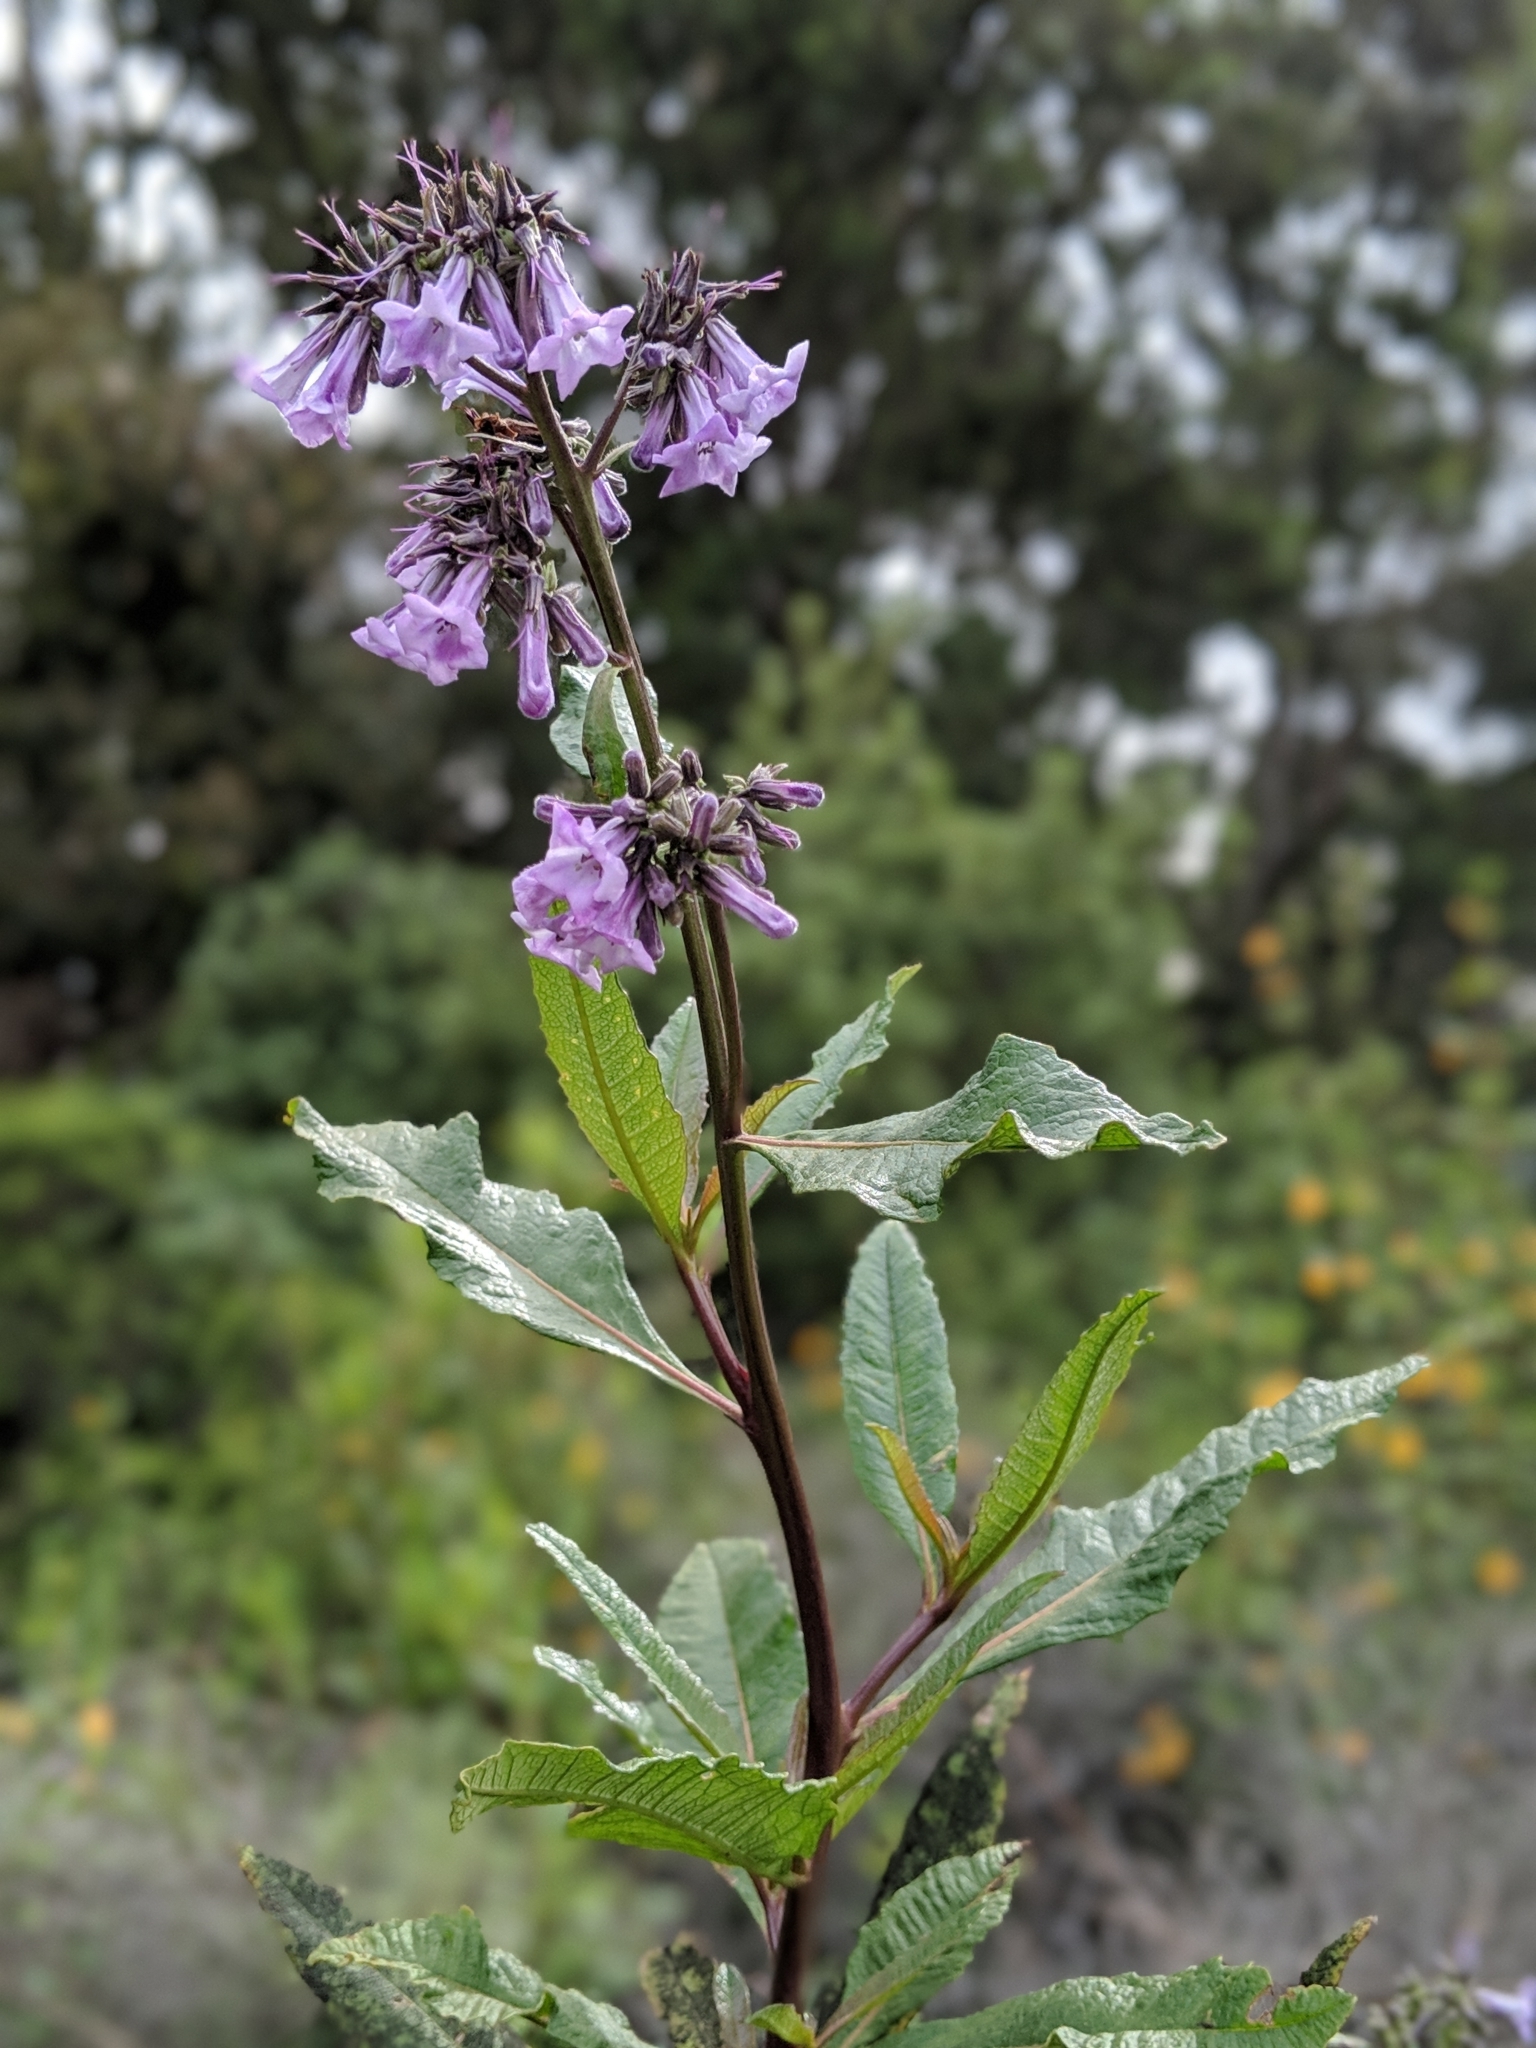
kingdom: Plantae
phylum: Tracheophyta
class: Magnoliopsida
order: Boraginales
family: Namaceae
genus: Eriodictyon
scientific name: Eriodictyon californicum
